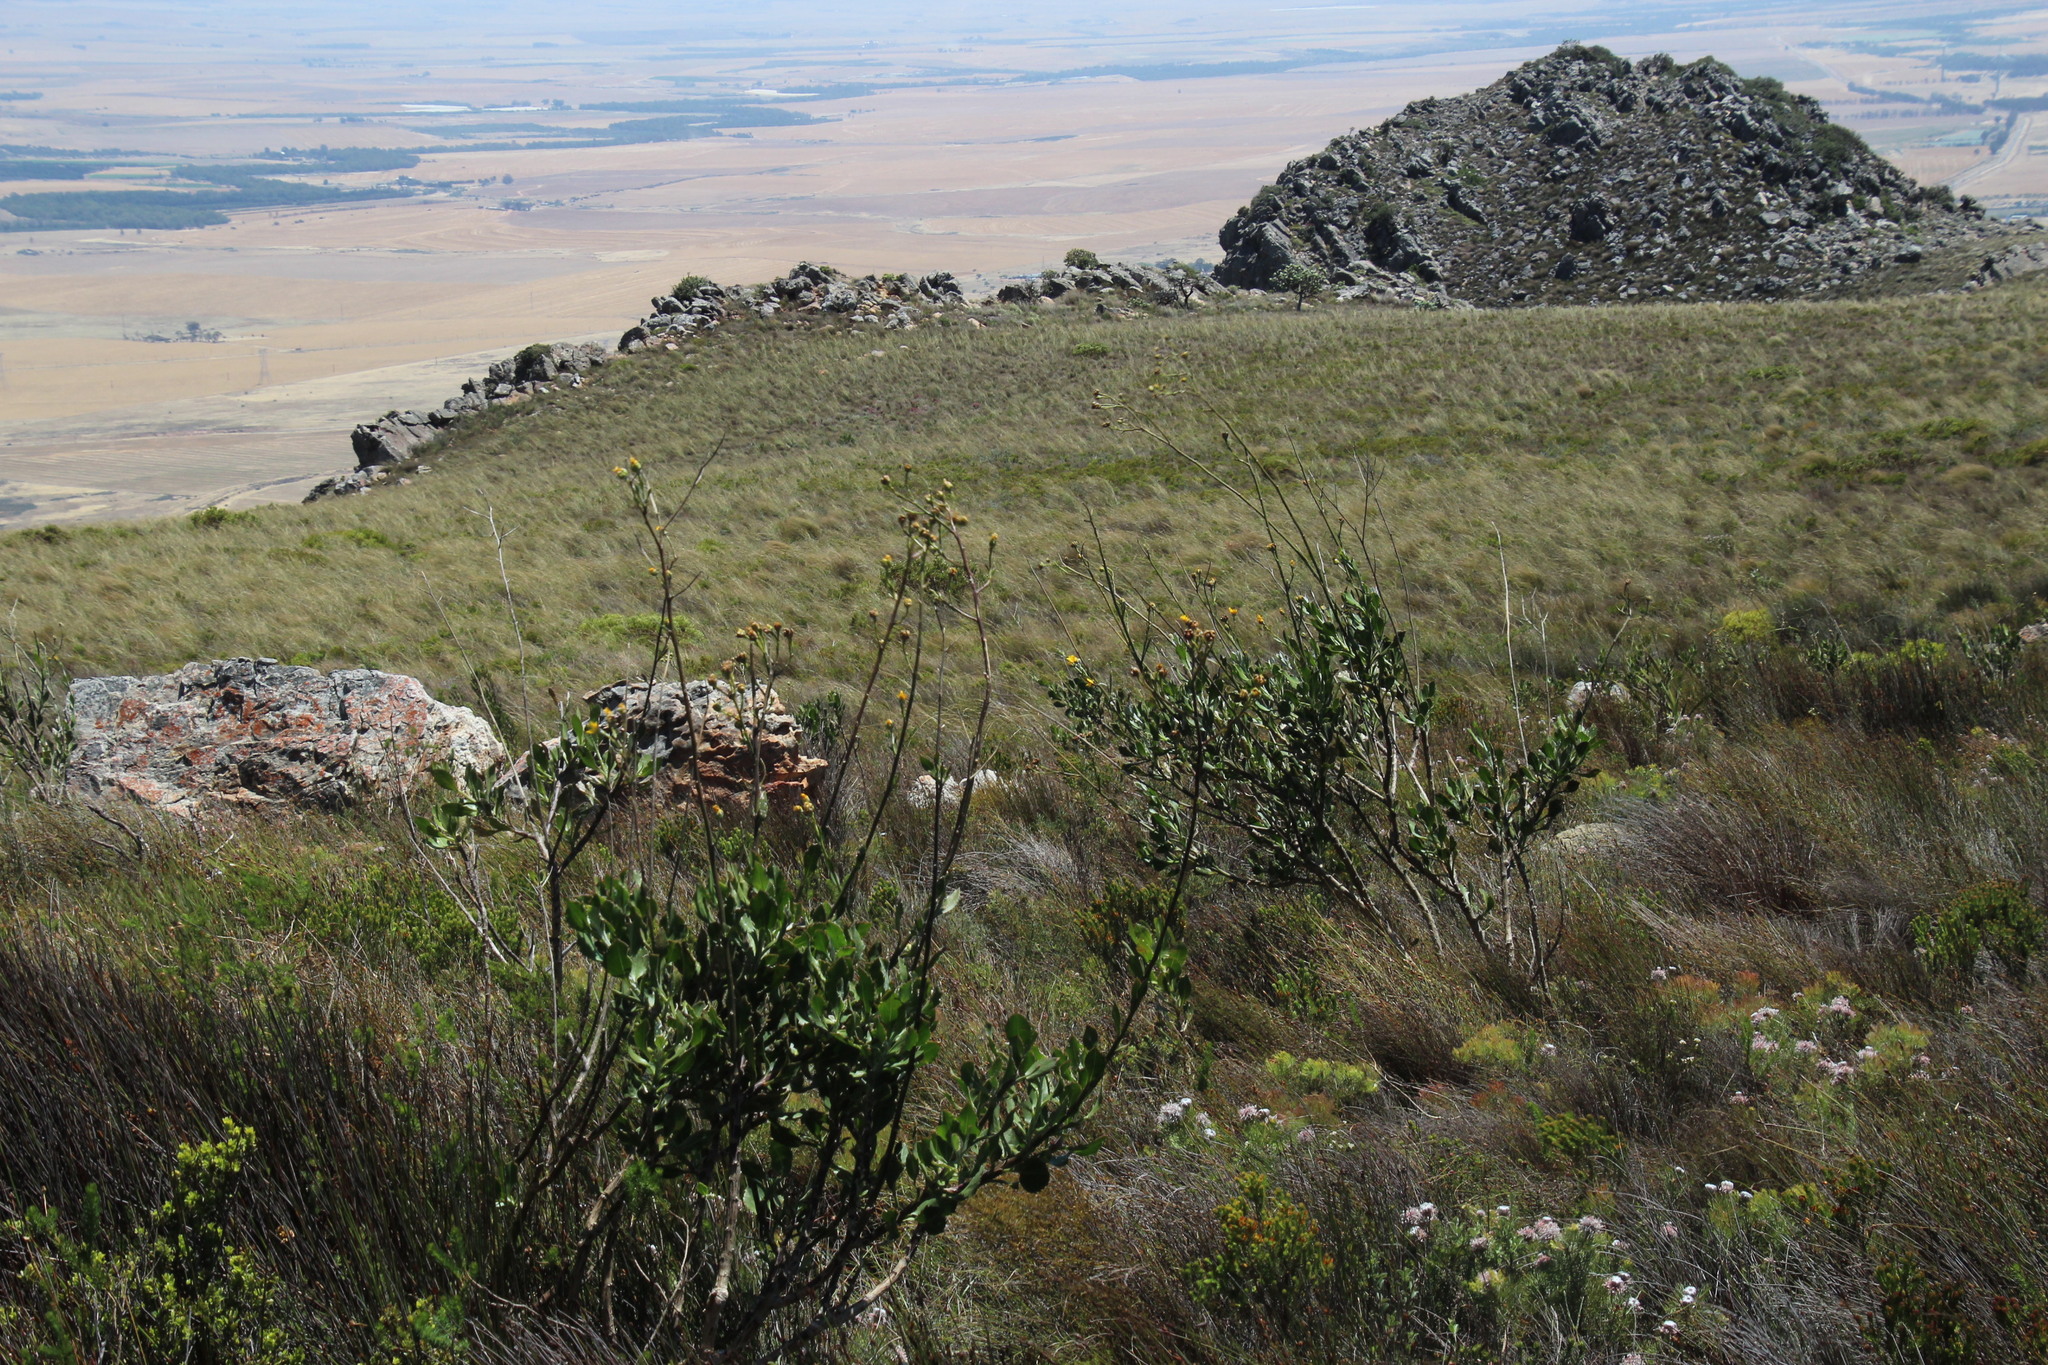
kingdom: Plantae
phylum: Tracheophyta
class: Magnoliopsida
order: Asterales
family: Asteraceae
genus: Osteospermum
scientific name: Osteospermum junceum
